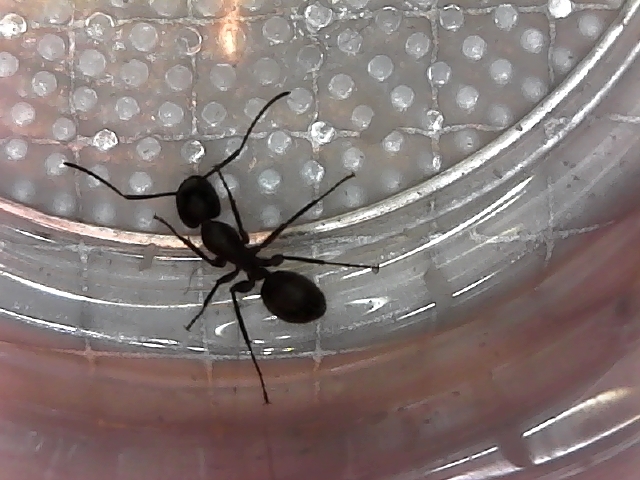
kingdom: Animalia
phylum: Arthropoda
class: Insecta
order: Hymenoptera
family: Formicidae
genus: Camponotus
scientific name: Camponotus pennsylvanicus
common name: Black carpenter ant
